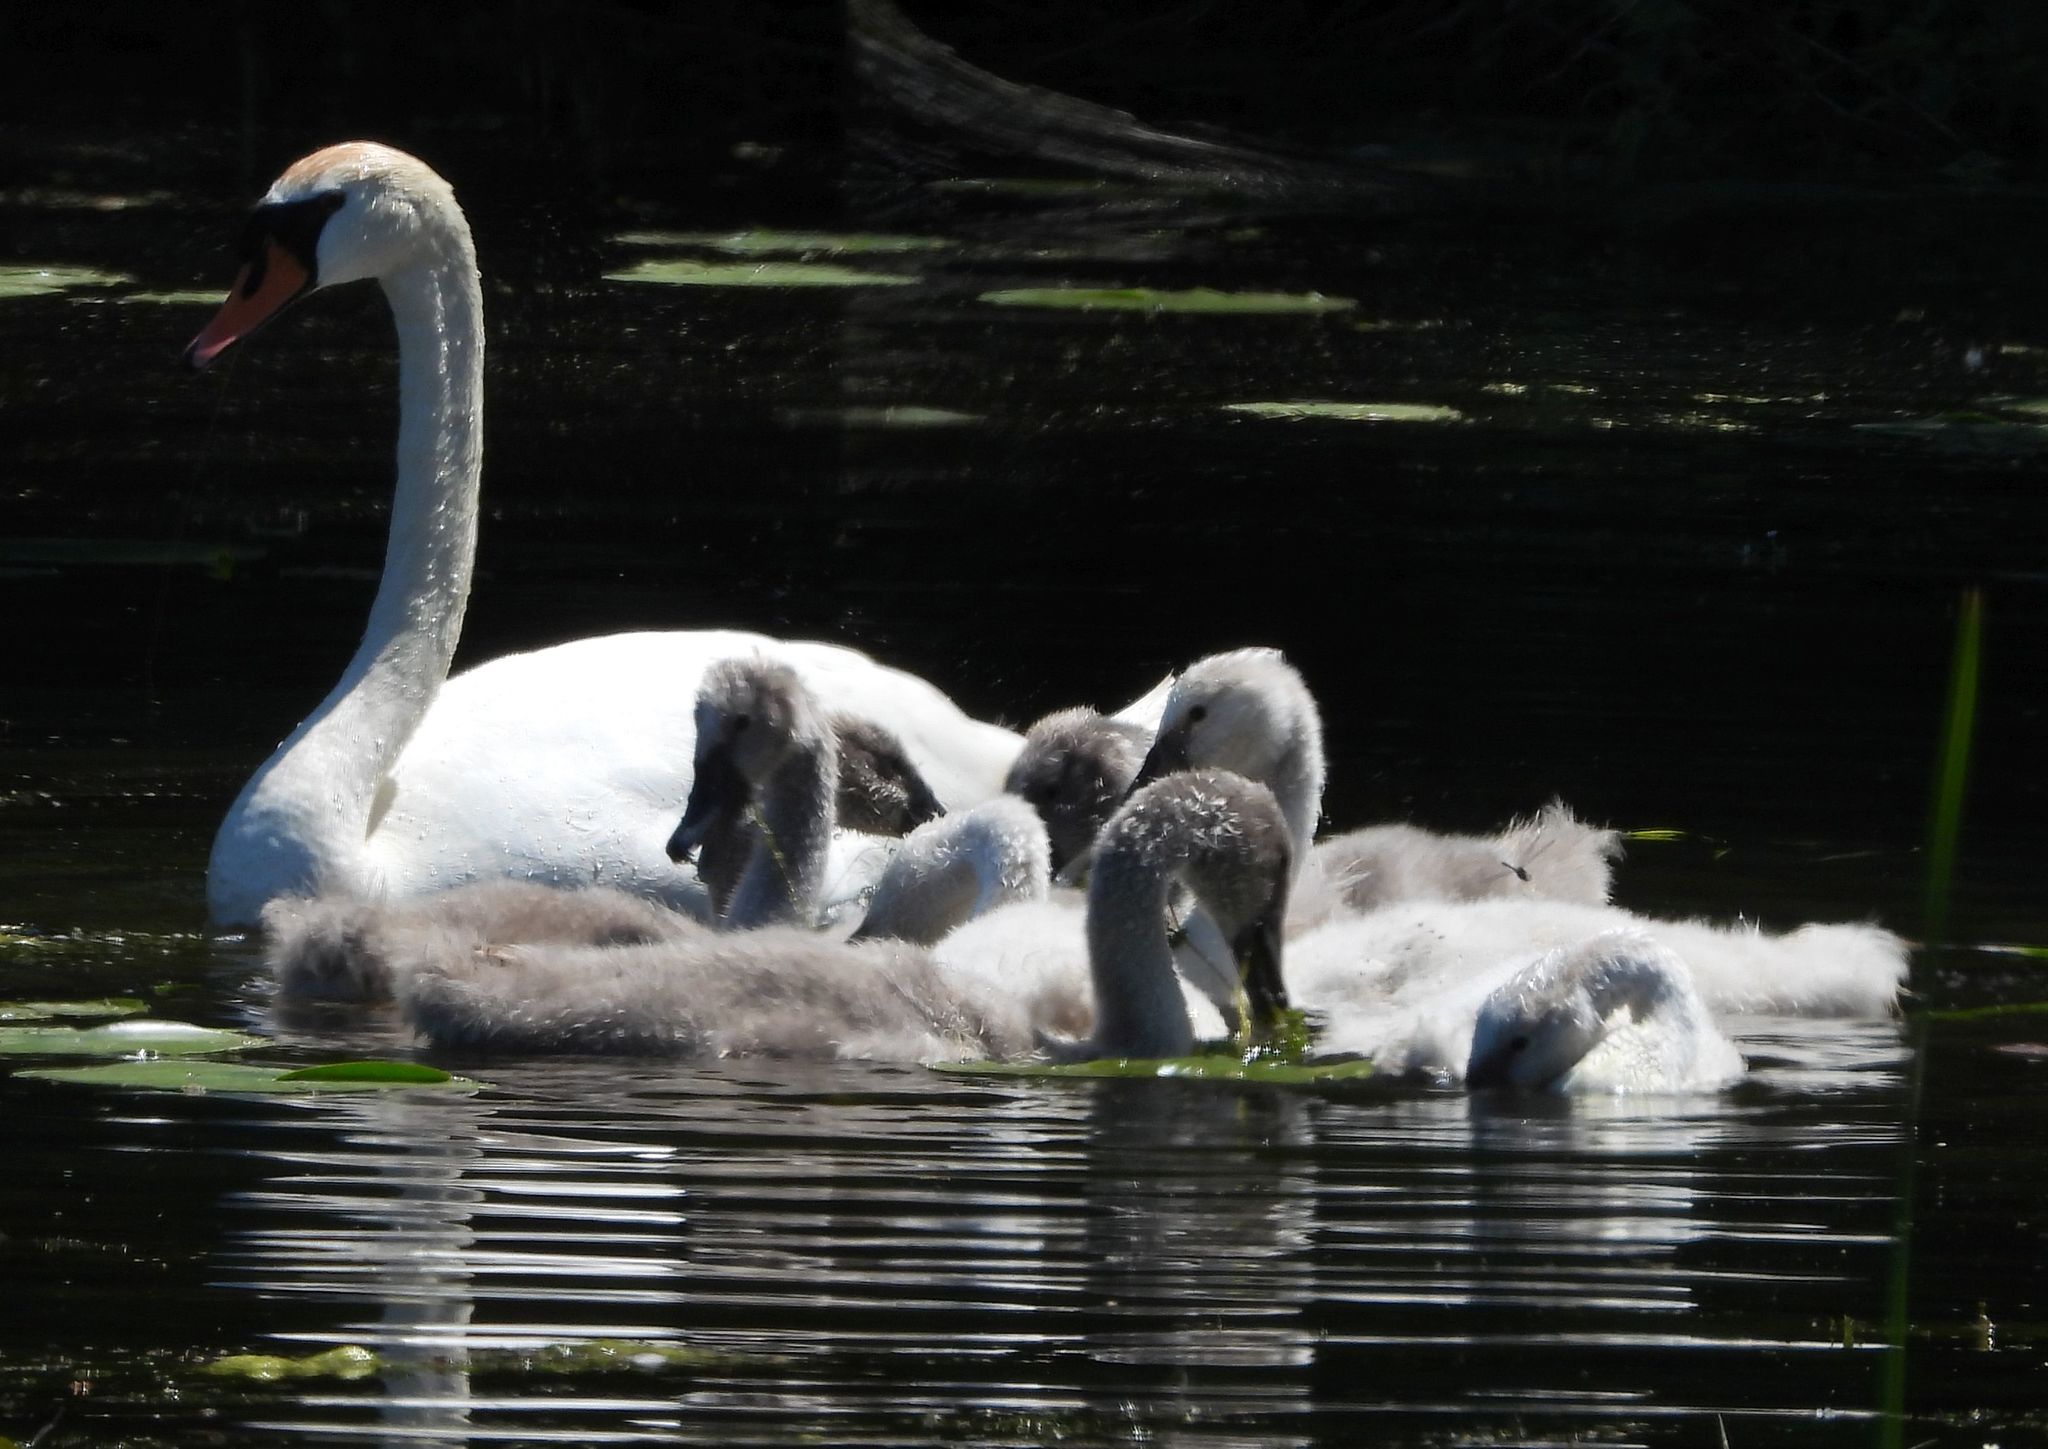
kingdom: Animalia
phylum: Chordata
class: Aves
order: Anseriformes
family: Anatidae
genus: Cygnus
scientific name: Cygnus olor
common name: Mute swan
